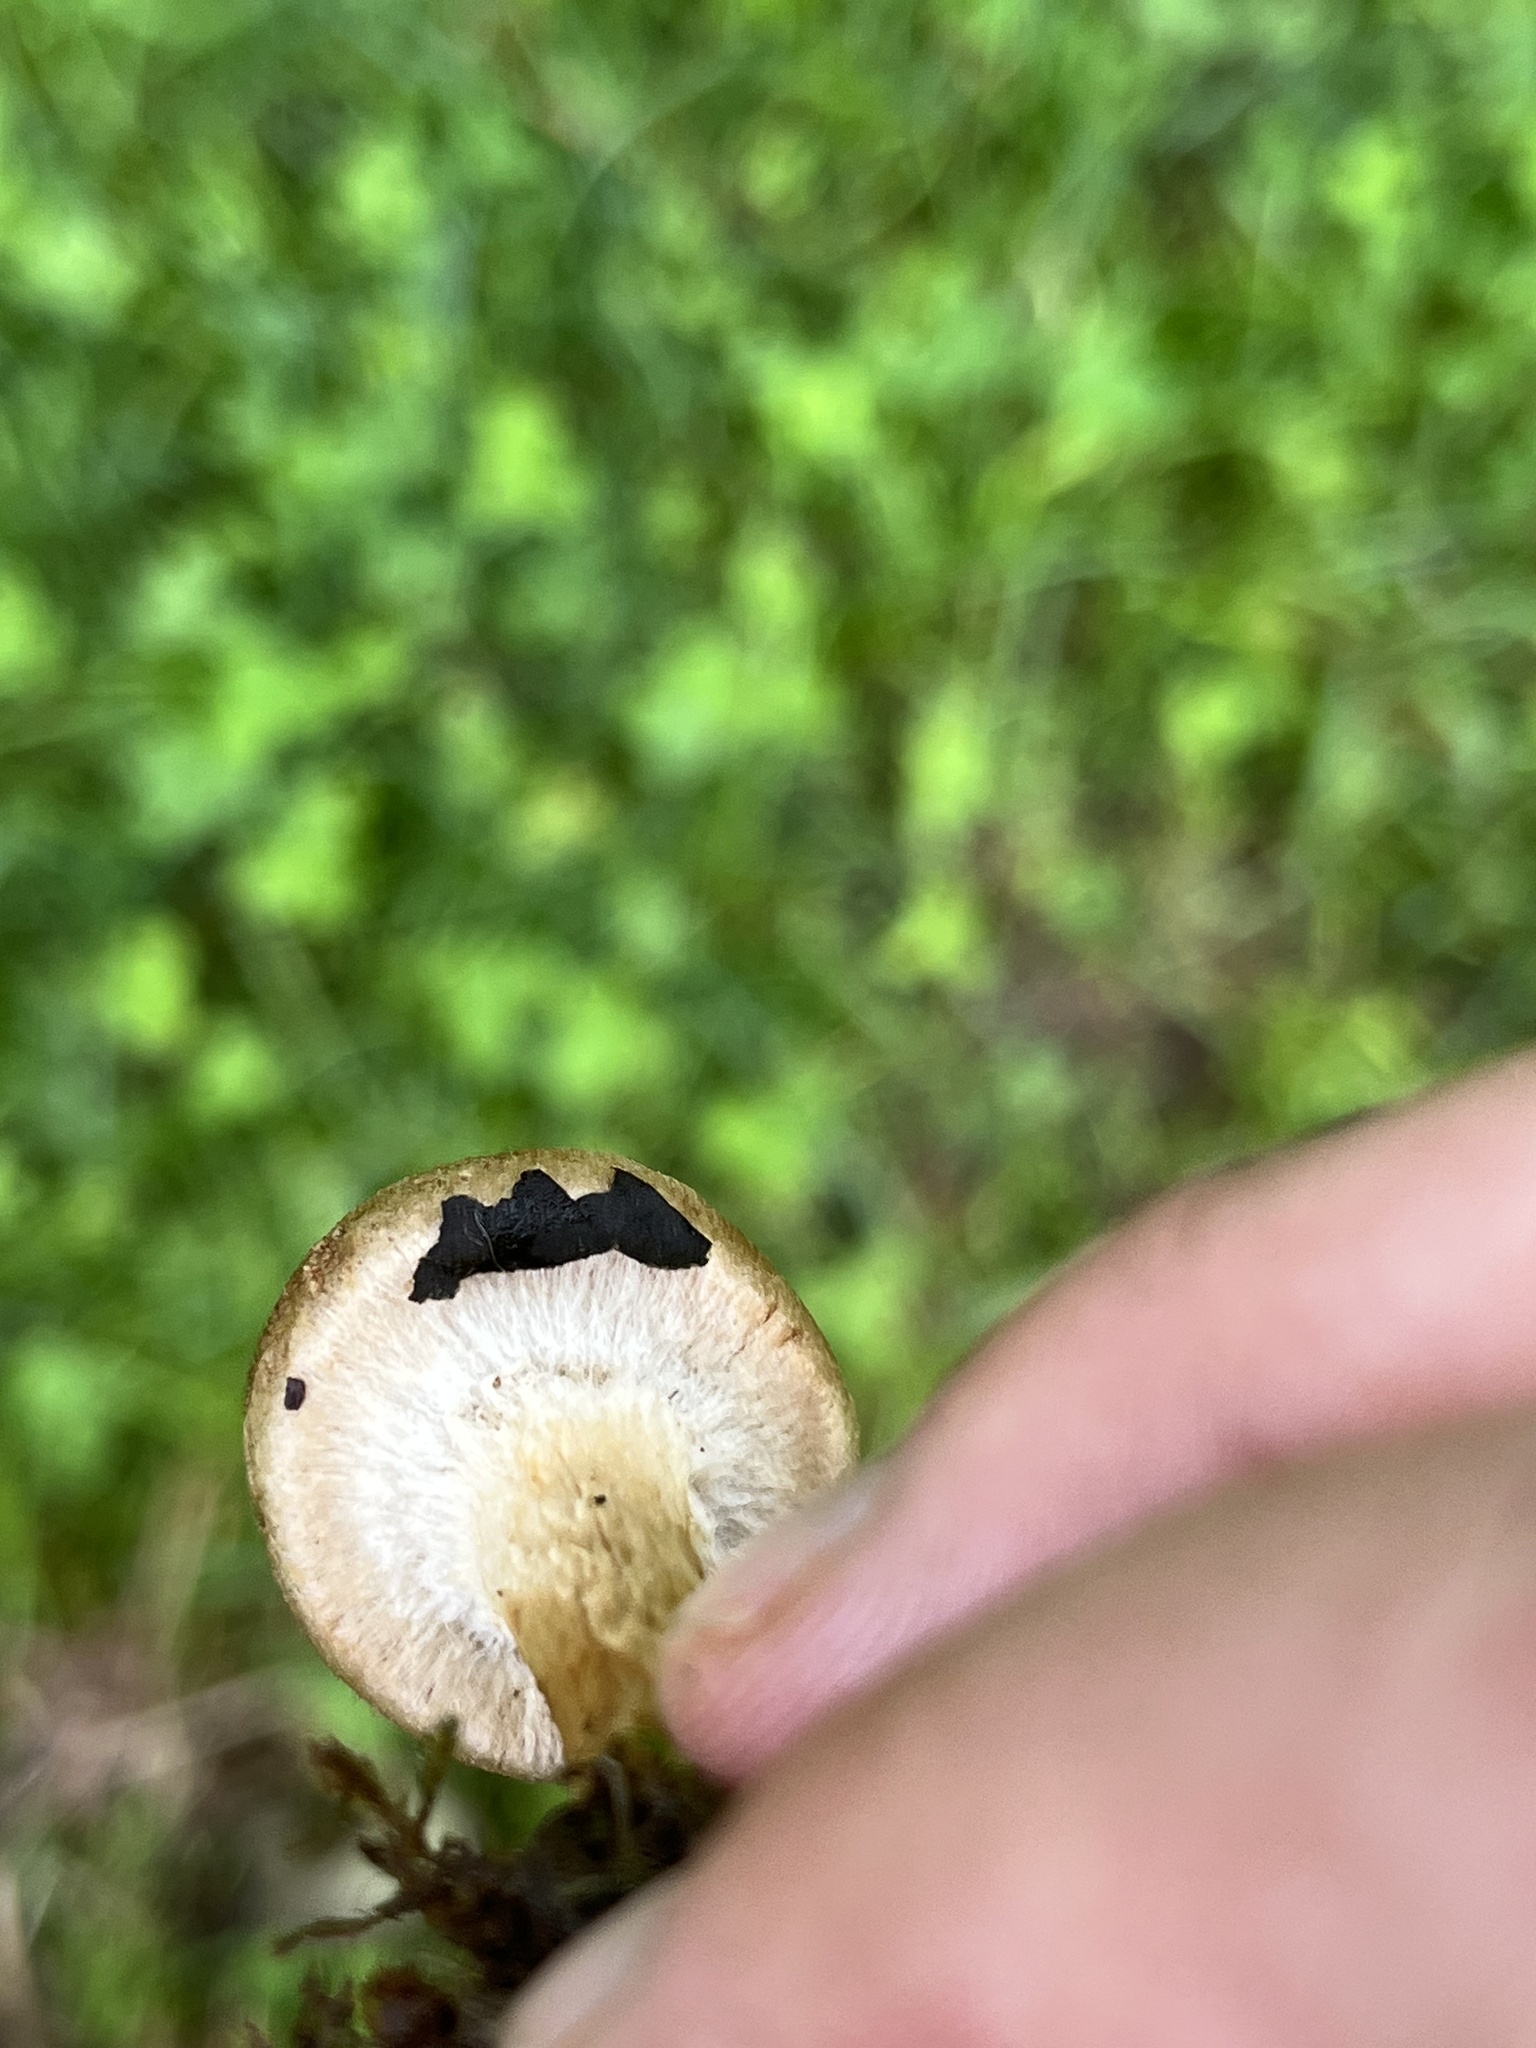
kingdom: Fungi
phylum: Basidiomycota
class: Agaricomycetes
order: Agaricales
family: Psathyrellaceae
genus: Lacrymaria
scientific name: Lacrymaria lacrymabunda
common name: Weeping widow
